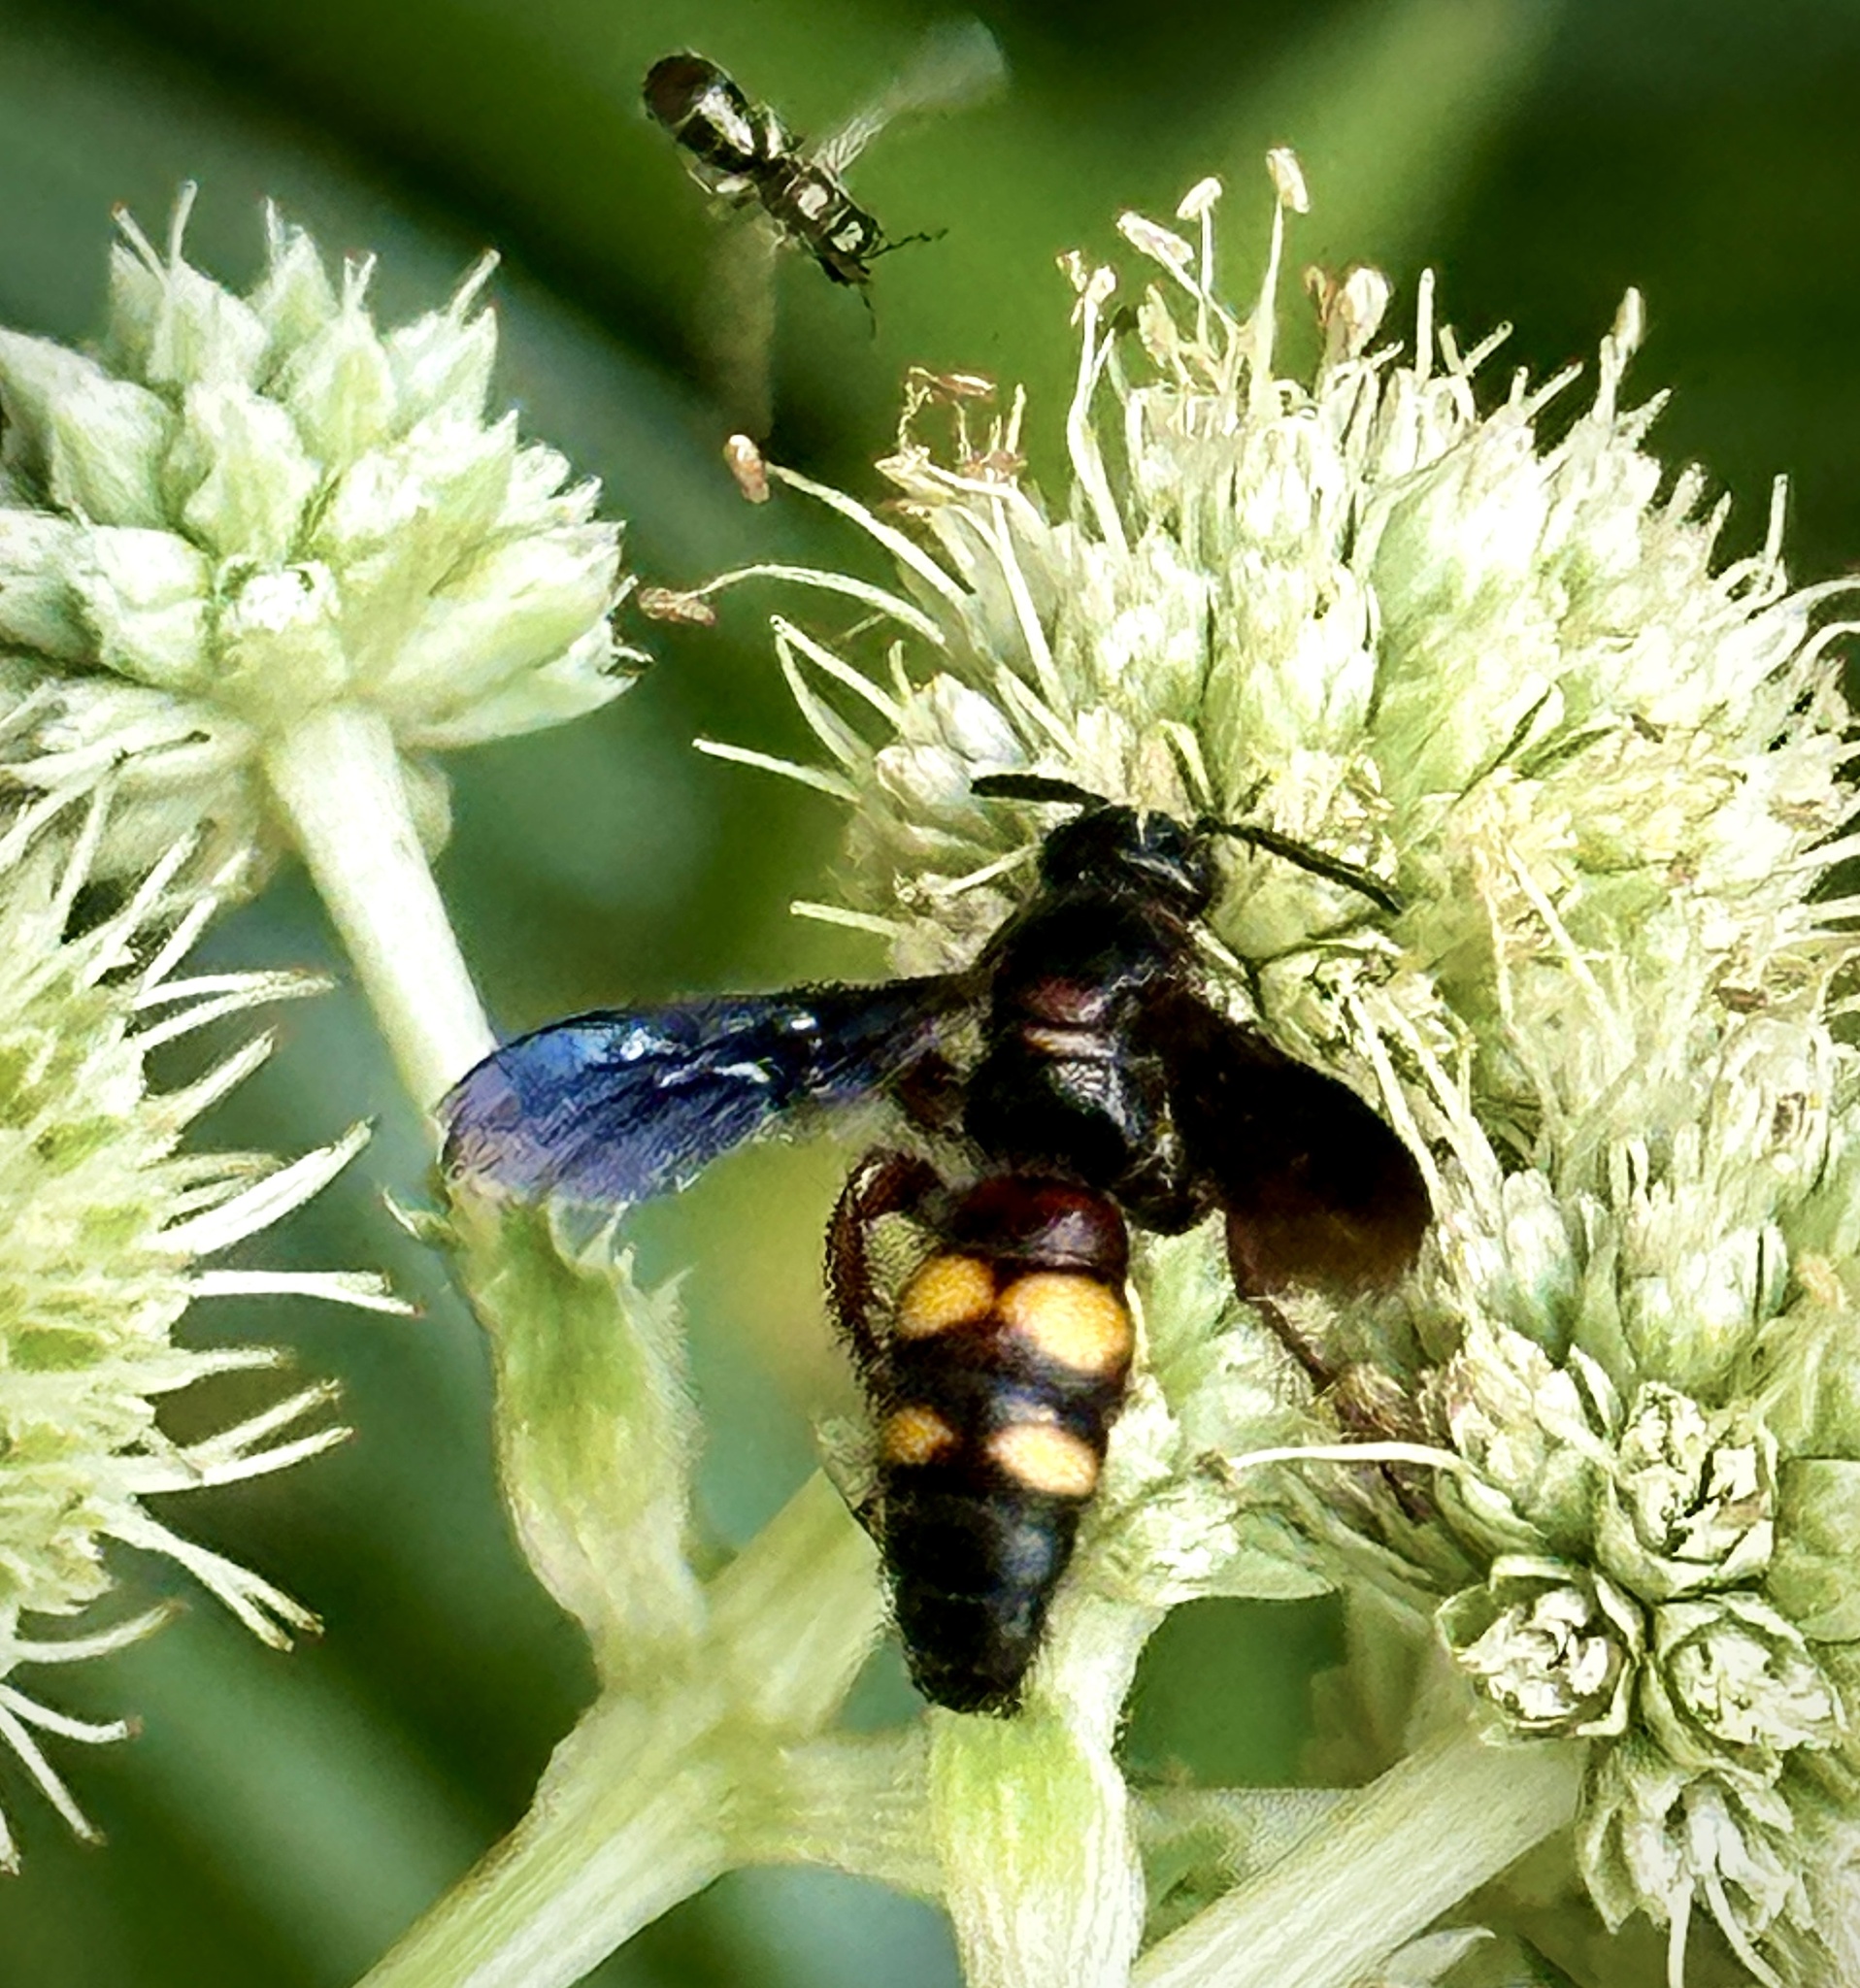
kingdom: Animalia
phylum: Arthropoda
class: Insecta
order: Hymenoptera
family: Scoliidae
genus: Scolia
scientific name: Scolia nobilitata
